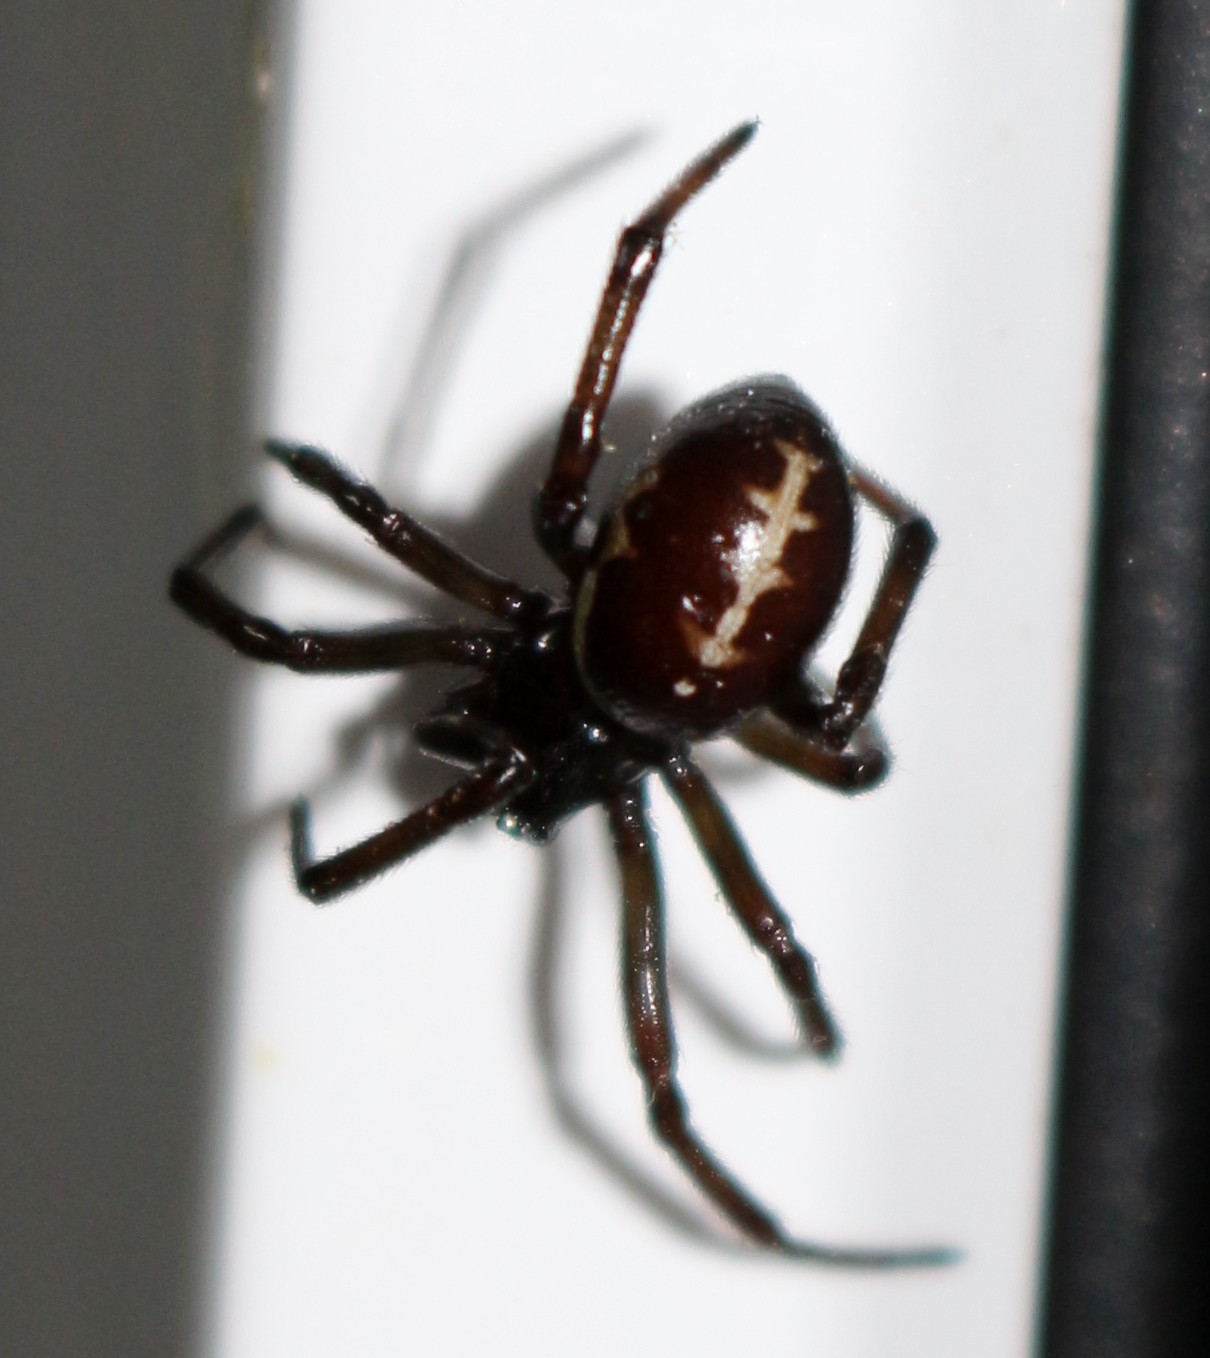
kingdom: Animalia
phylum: Arthropoda
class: Arachnida
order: Araneae
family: Theridiidae
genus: Steatoda
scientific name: Steatoda paykulliana
